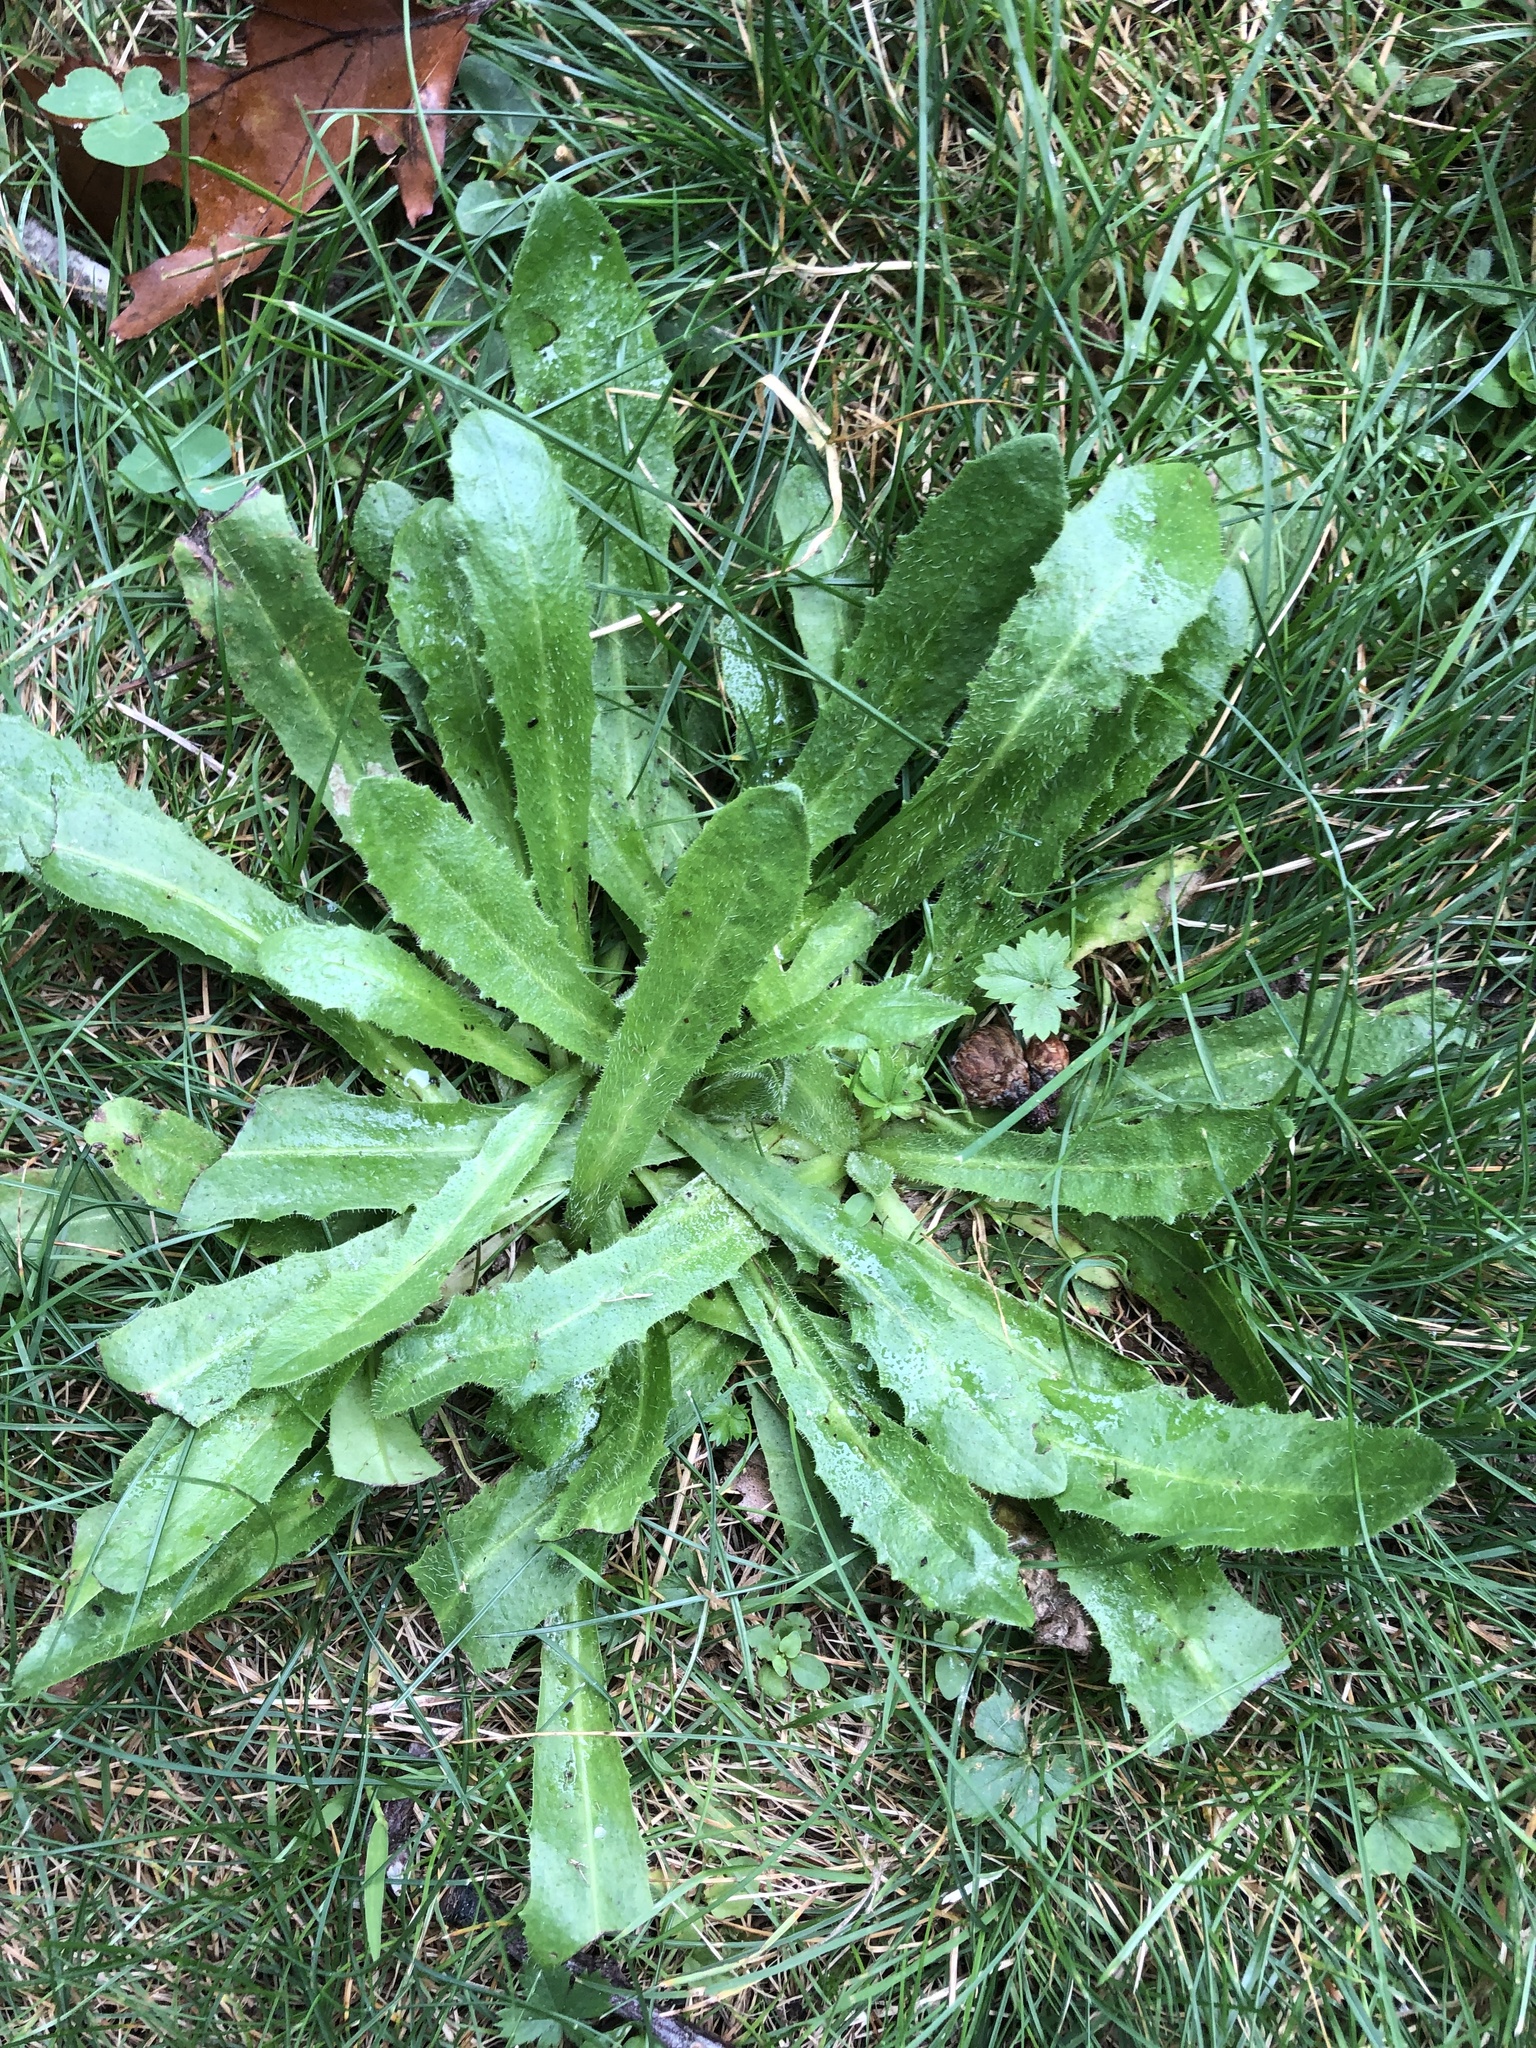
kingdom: Plantae
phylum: Tracheophyta
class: Magnoliopsida
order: Asterales
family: Asteraceae
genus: Hypochaeris
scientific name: Hypochaeris radicata
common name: Flatweed
